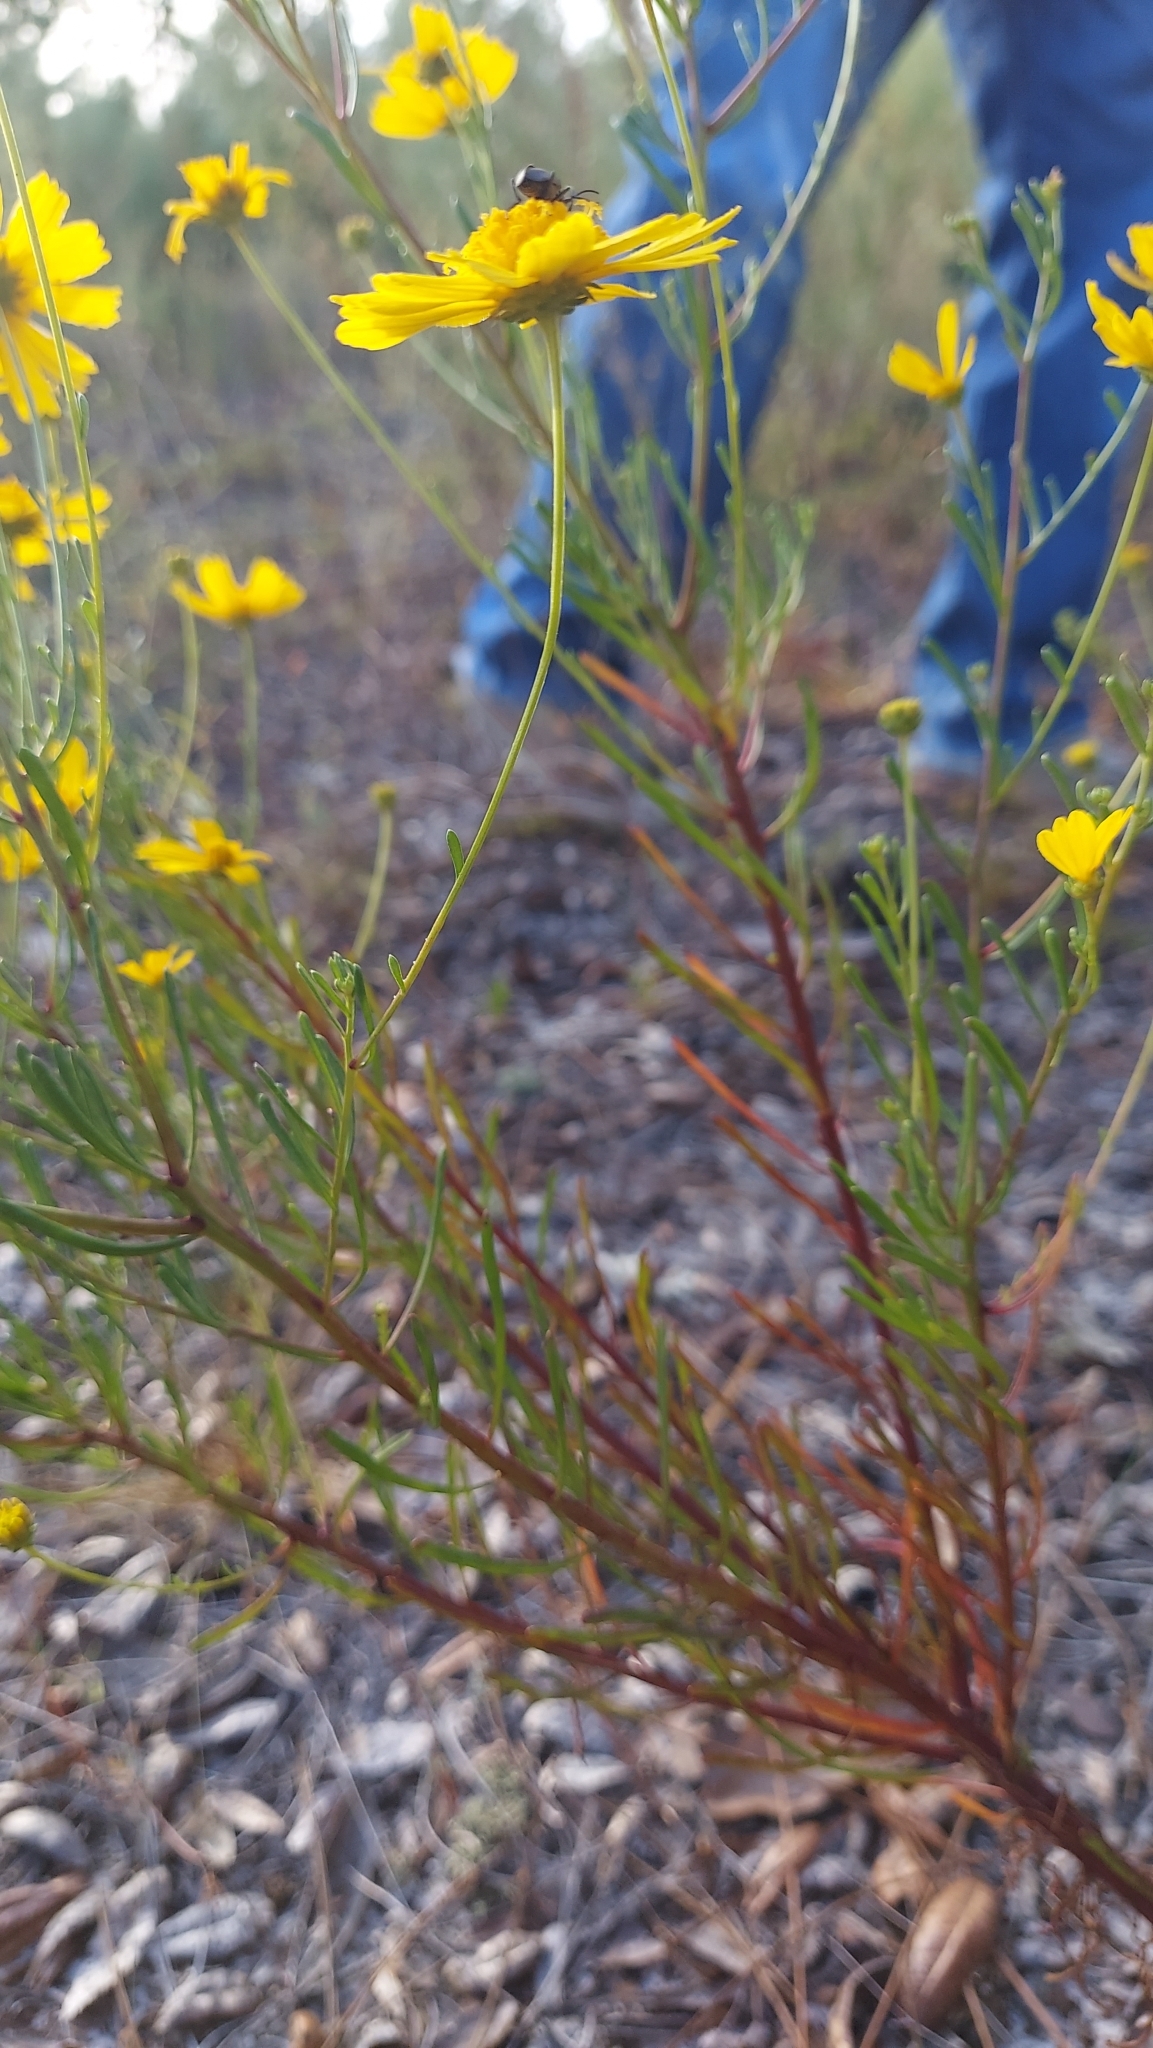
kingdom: Plantae
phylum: Tracheophyta
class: Magnoliopsida
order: Asterales
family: Asteraceae
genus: Balduina
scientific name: Balduina angustifolia
